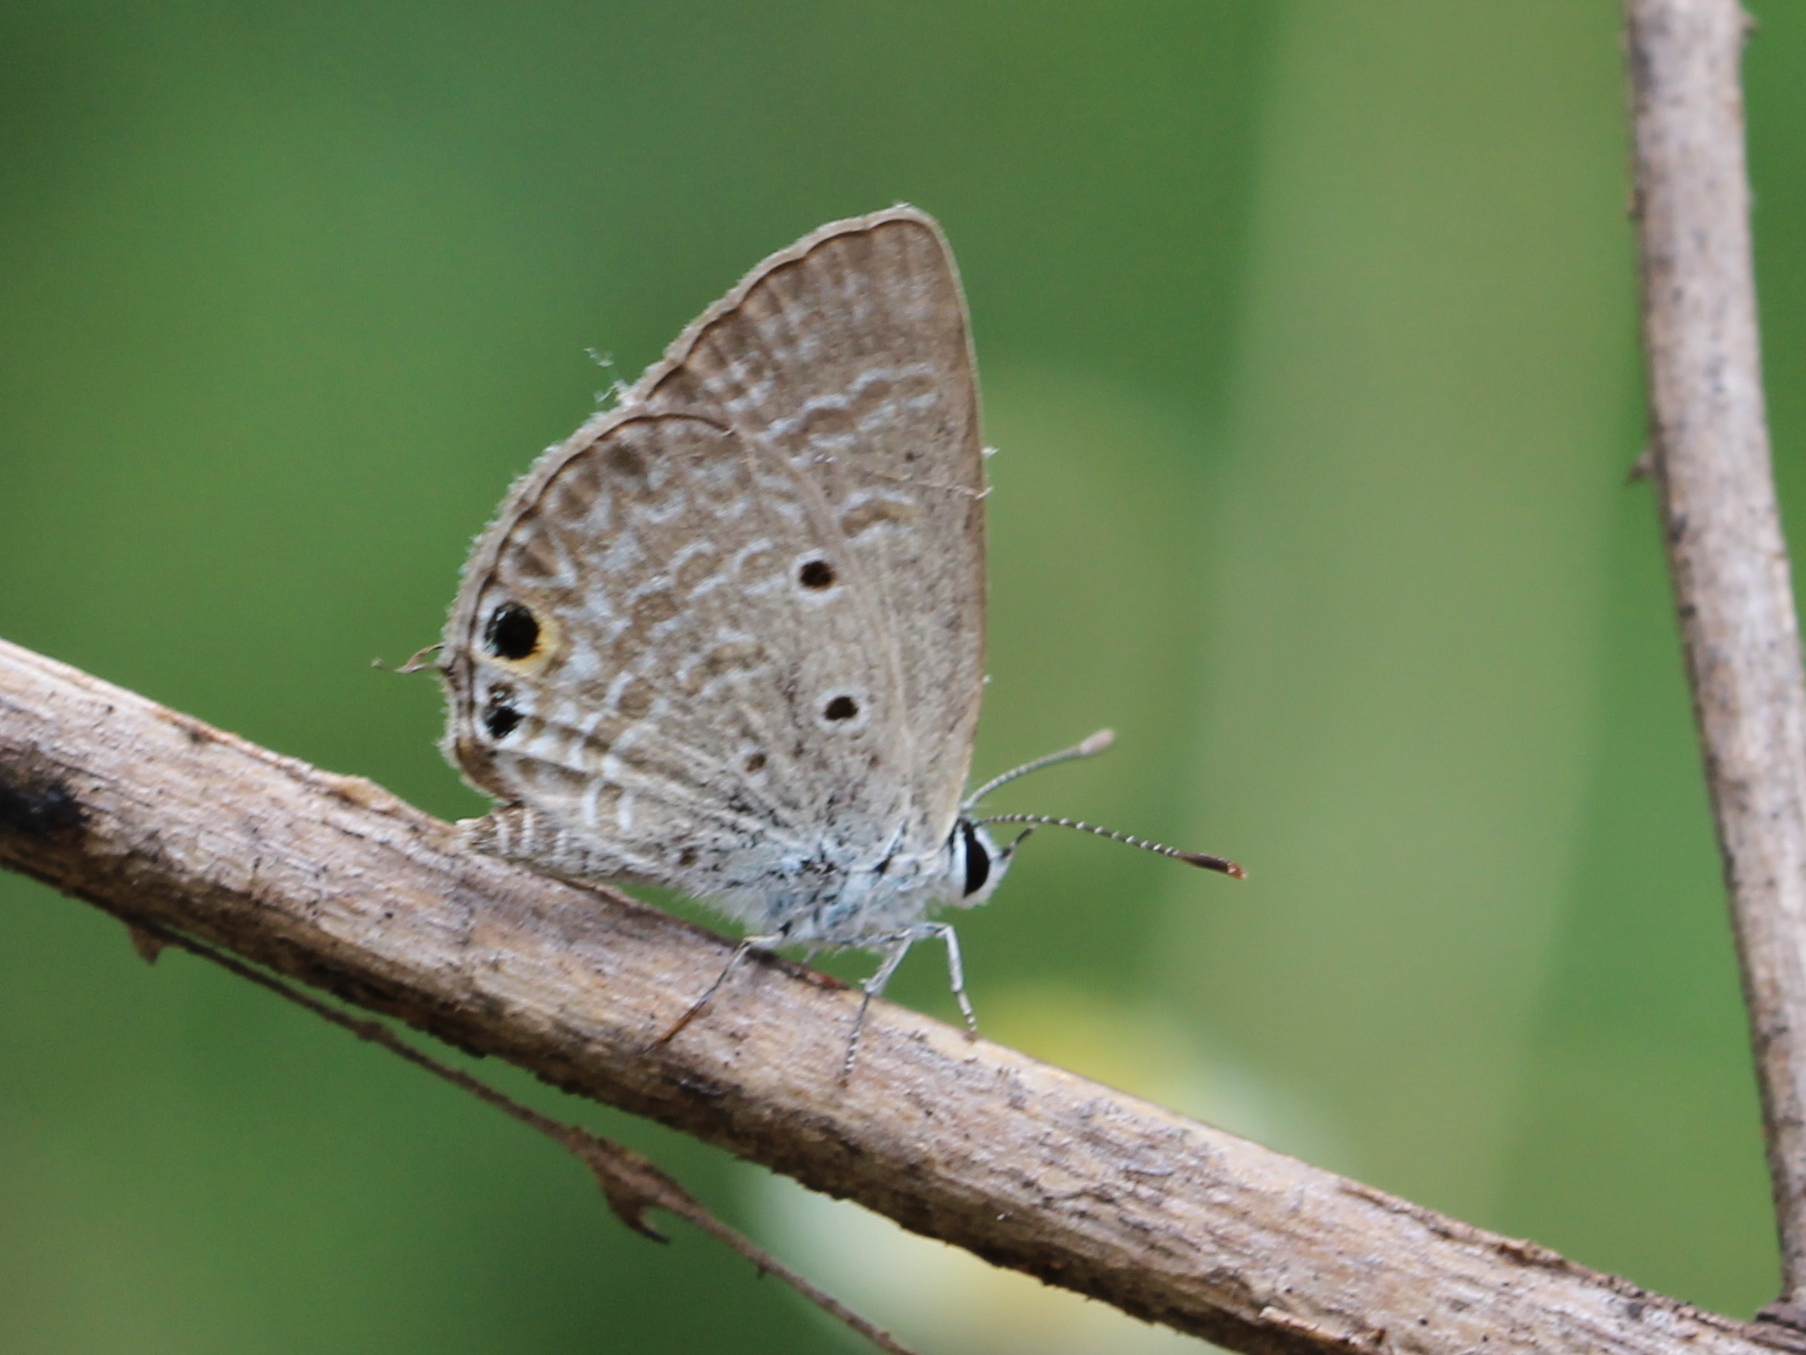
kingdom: Animalia
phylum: Arthropoda
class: Insecta
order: Lepidoptera
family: Lycaenidae
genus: Chilades
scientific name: Chilades parrhasius
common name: Small cupid
